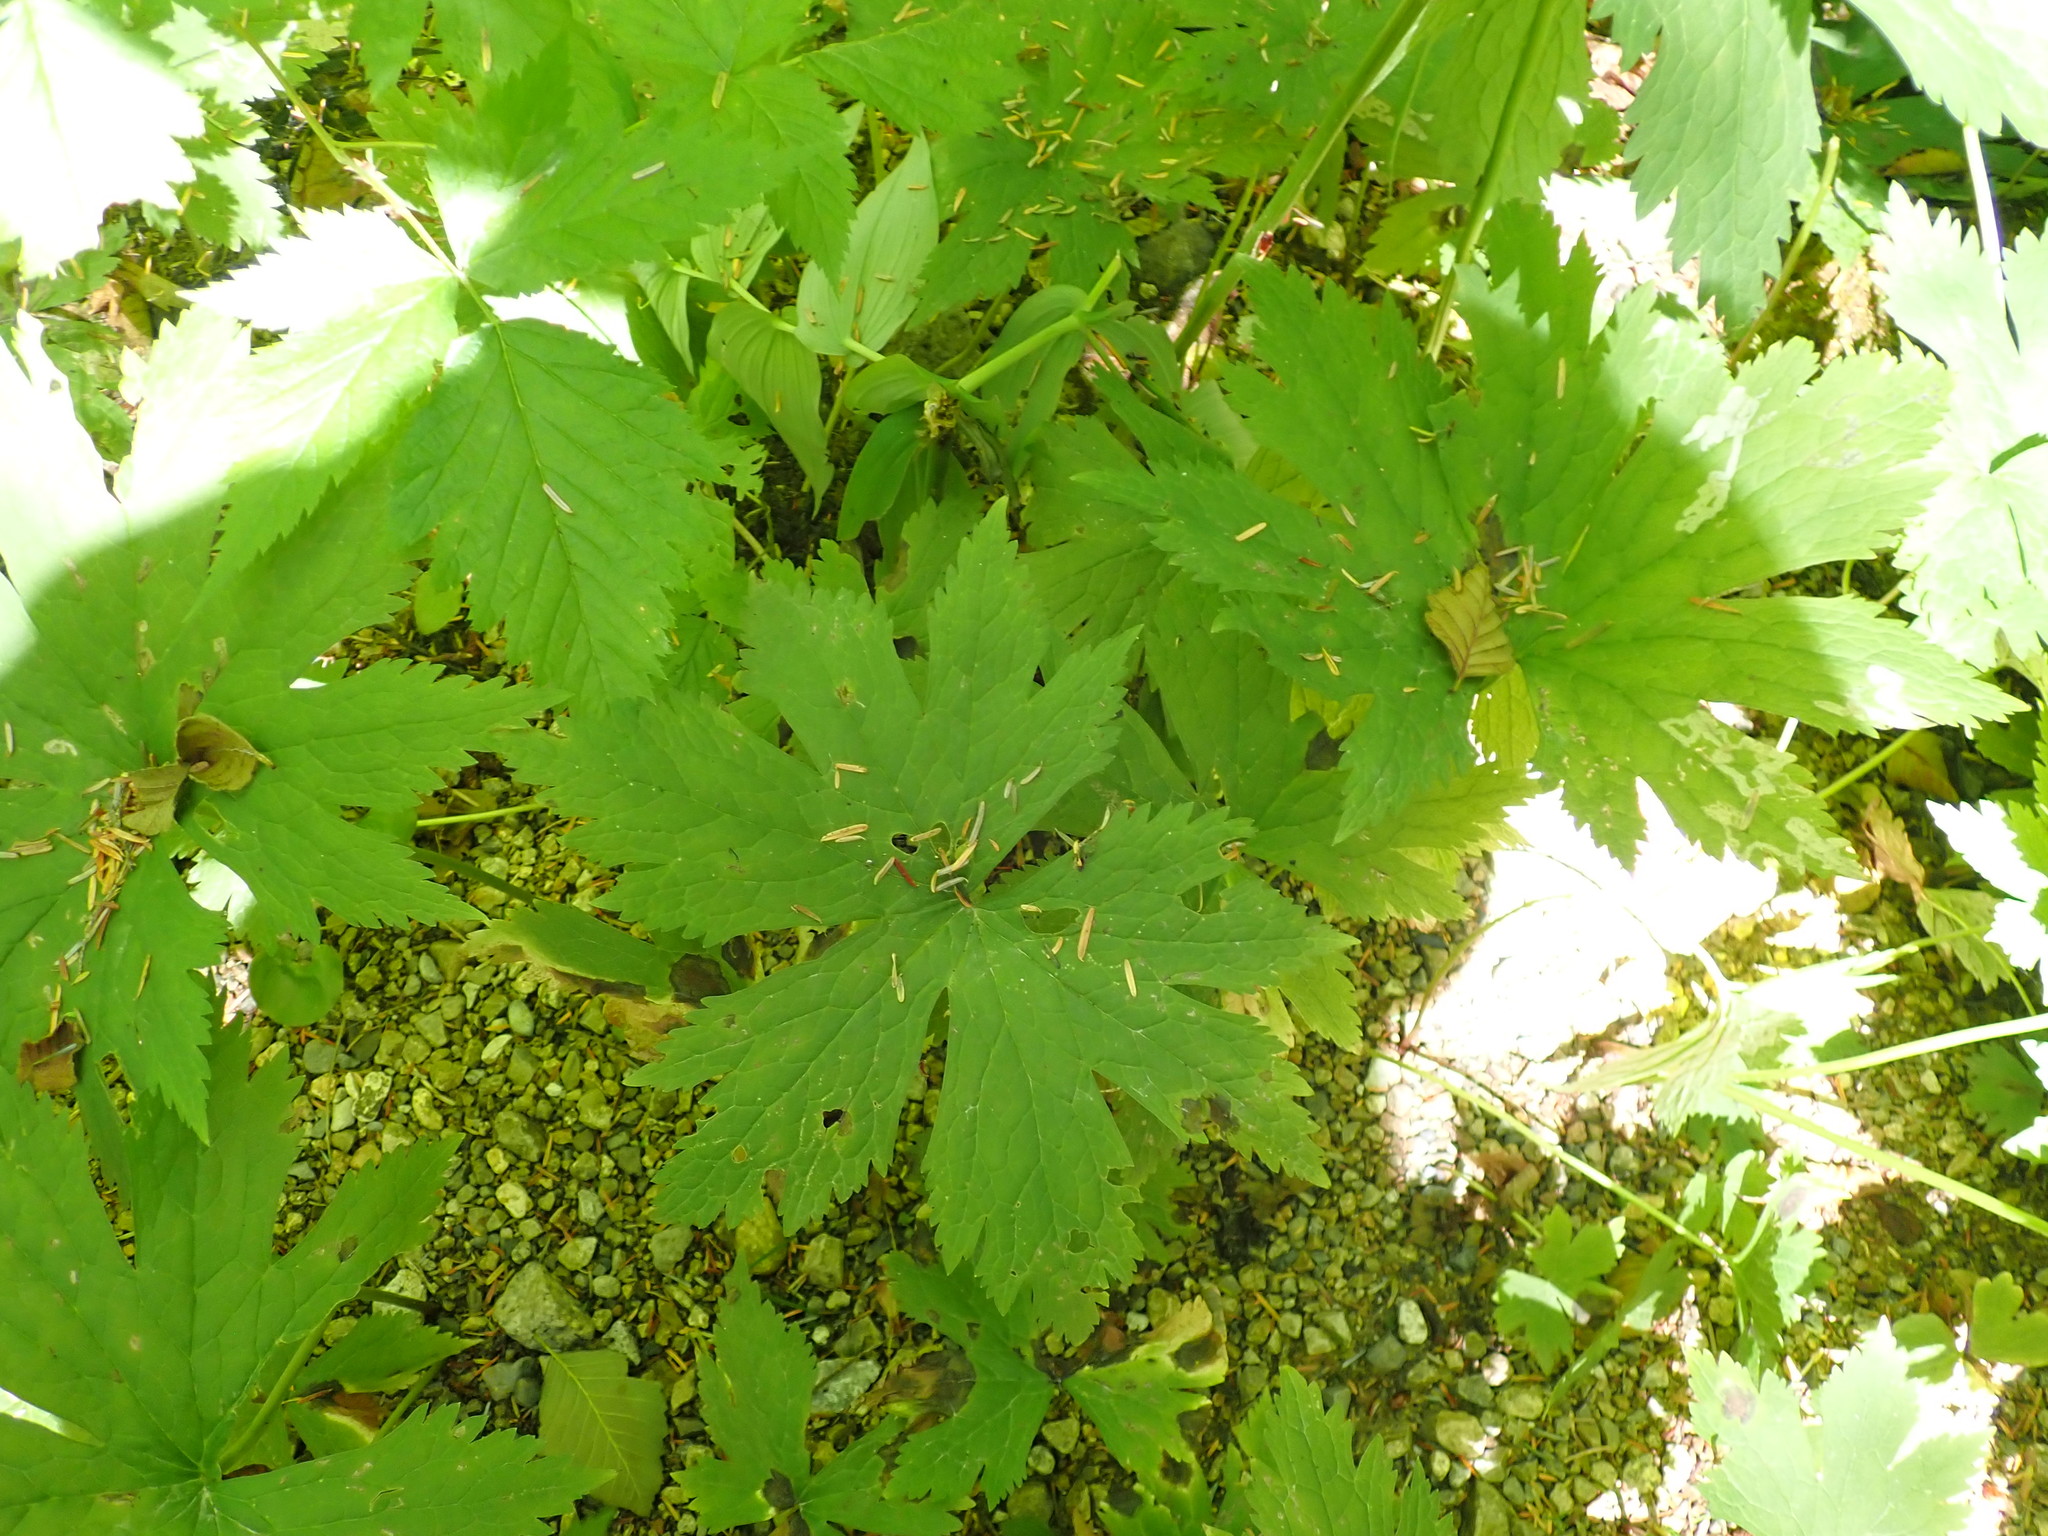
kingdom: Plantae
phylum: Tracheophyta
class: Magnoliopsida
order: Ranunculales
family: Ranunculaceae
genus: Trautvetteria
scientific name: Trautvetteria carolinensis
